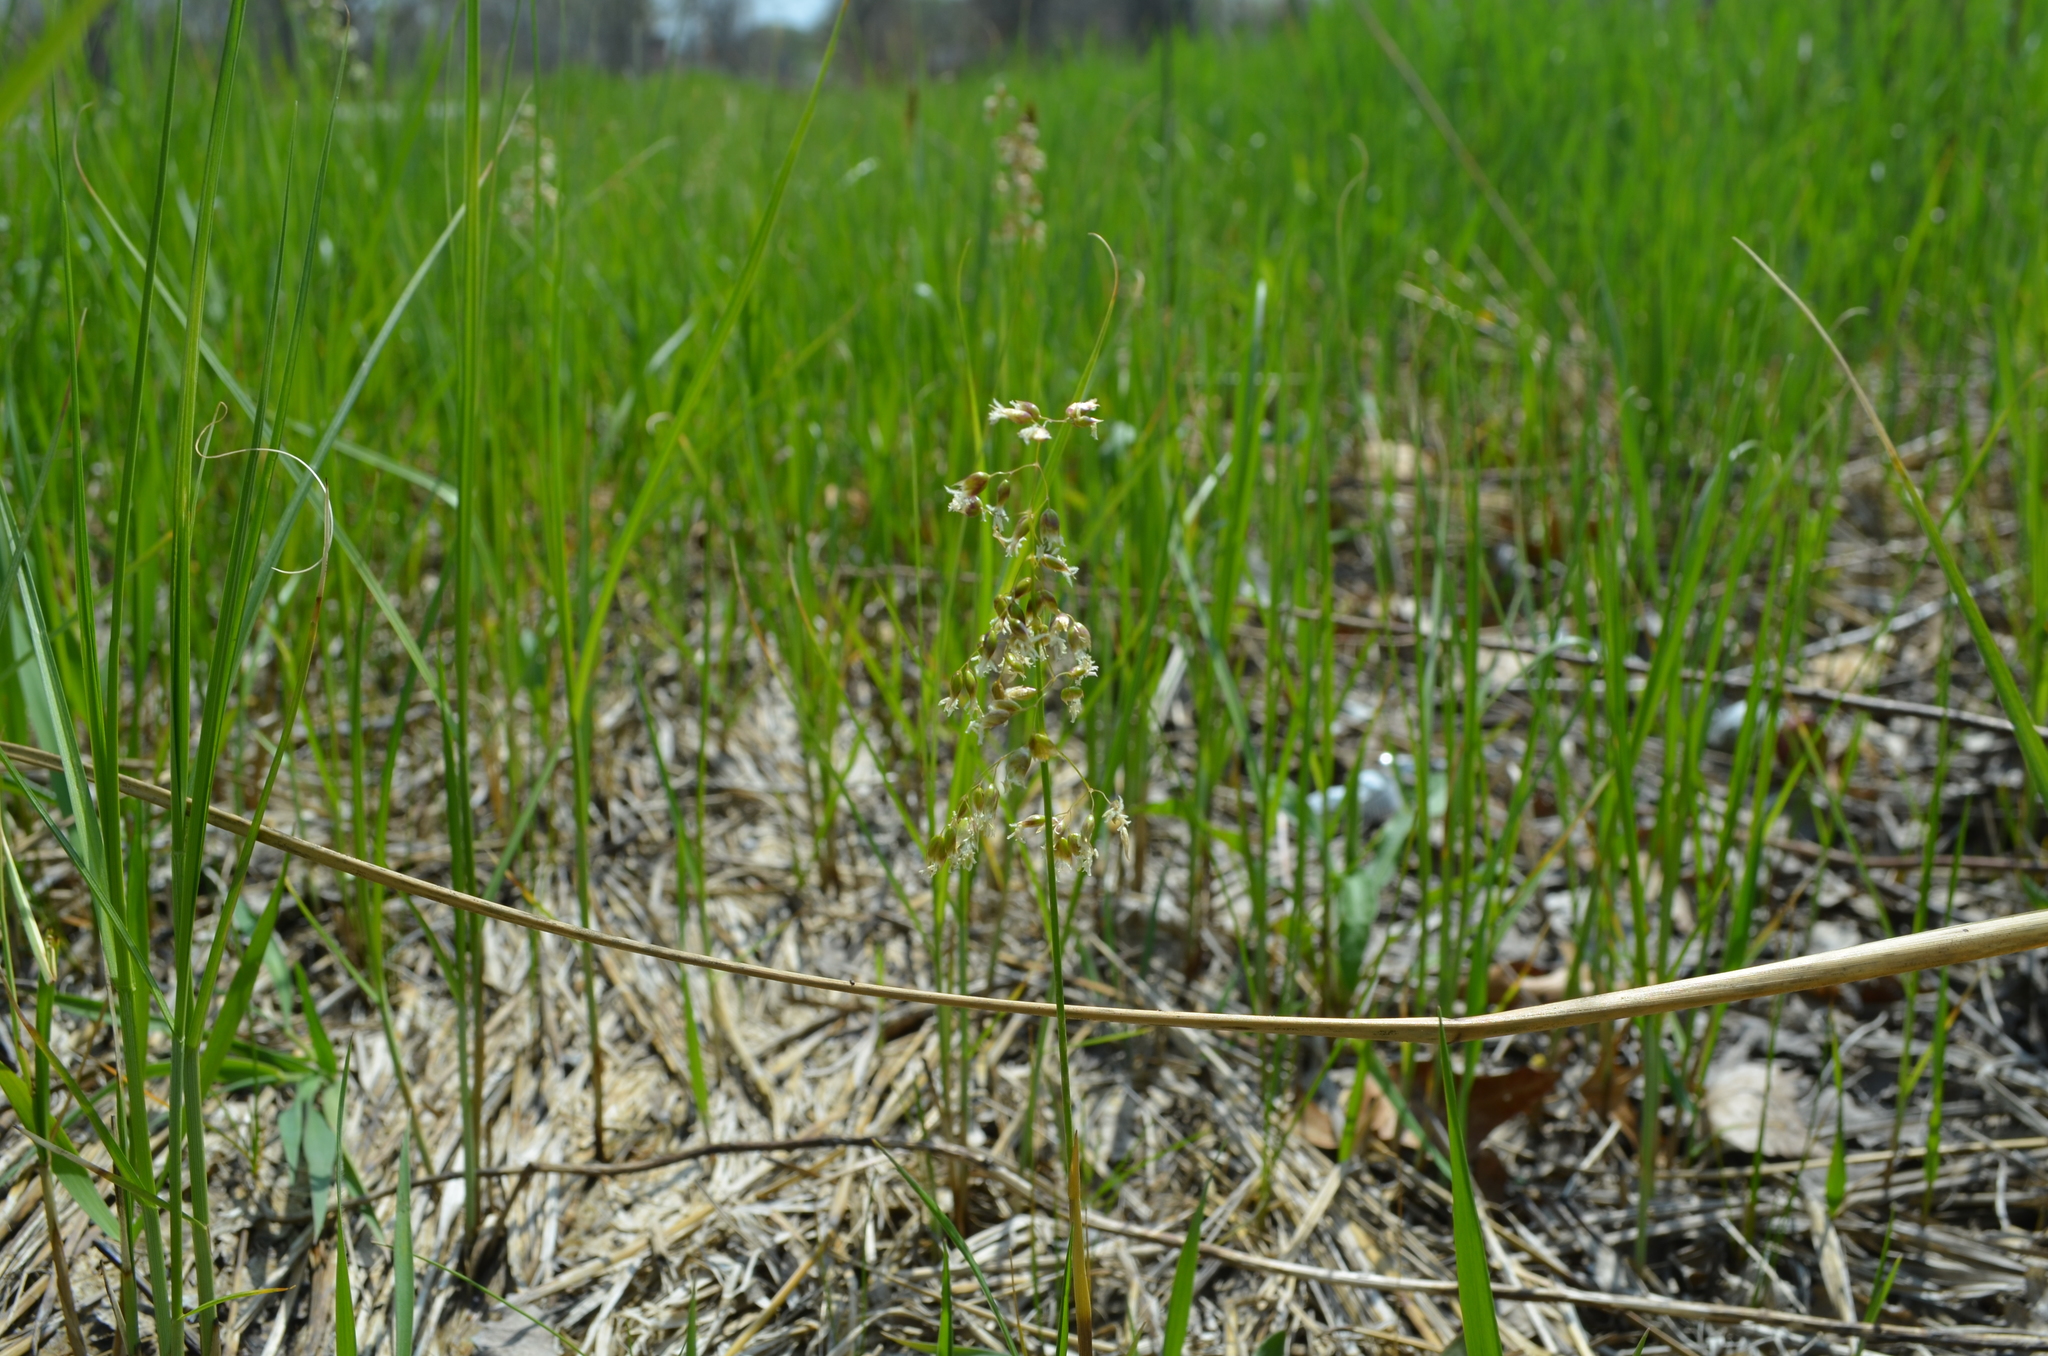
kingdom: Plantae
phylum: Tracheophyta
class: Liliopsida
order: Poales
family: Poaceae
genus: Anthoxanthum
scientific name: Anthoxanthum nitens
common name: Holy grass
